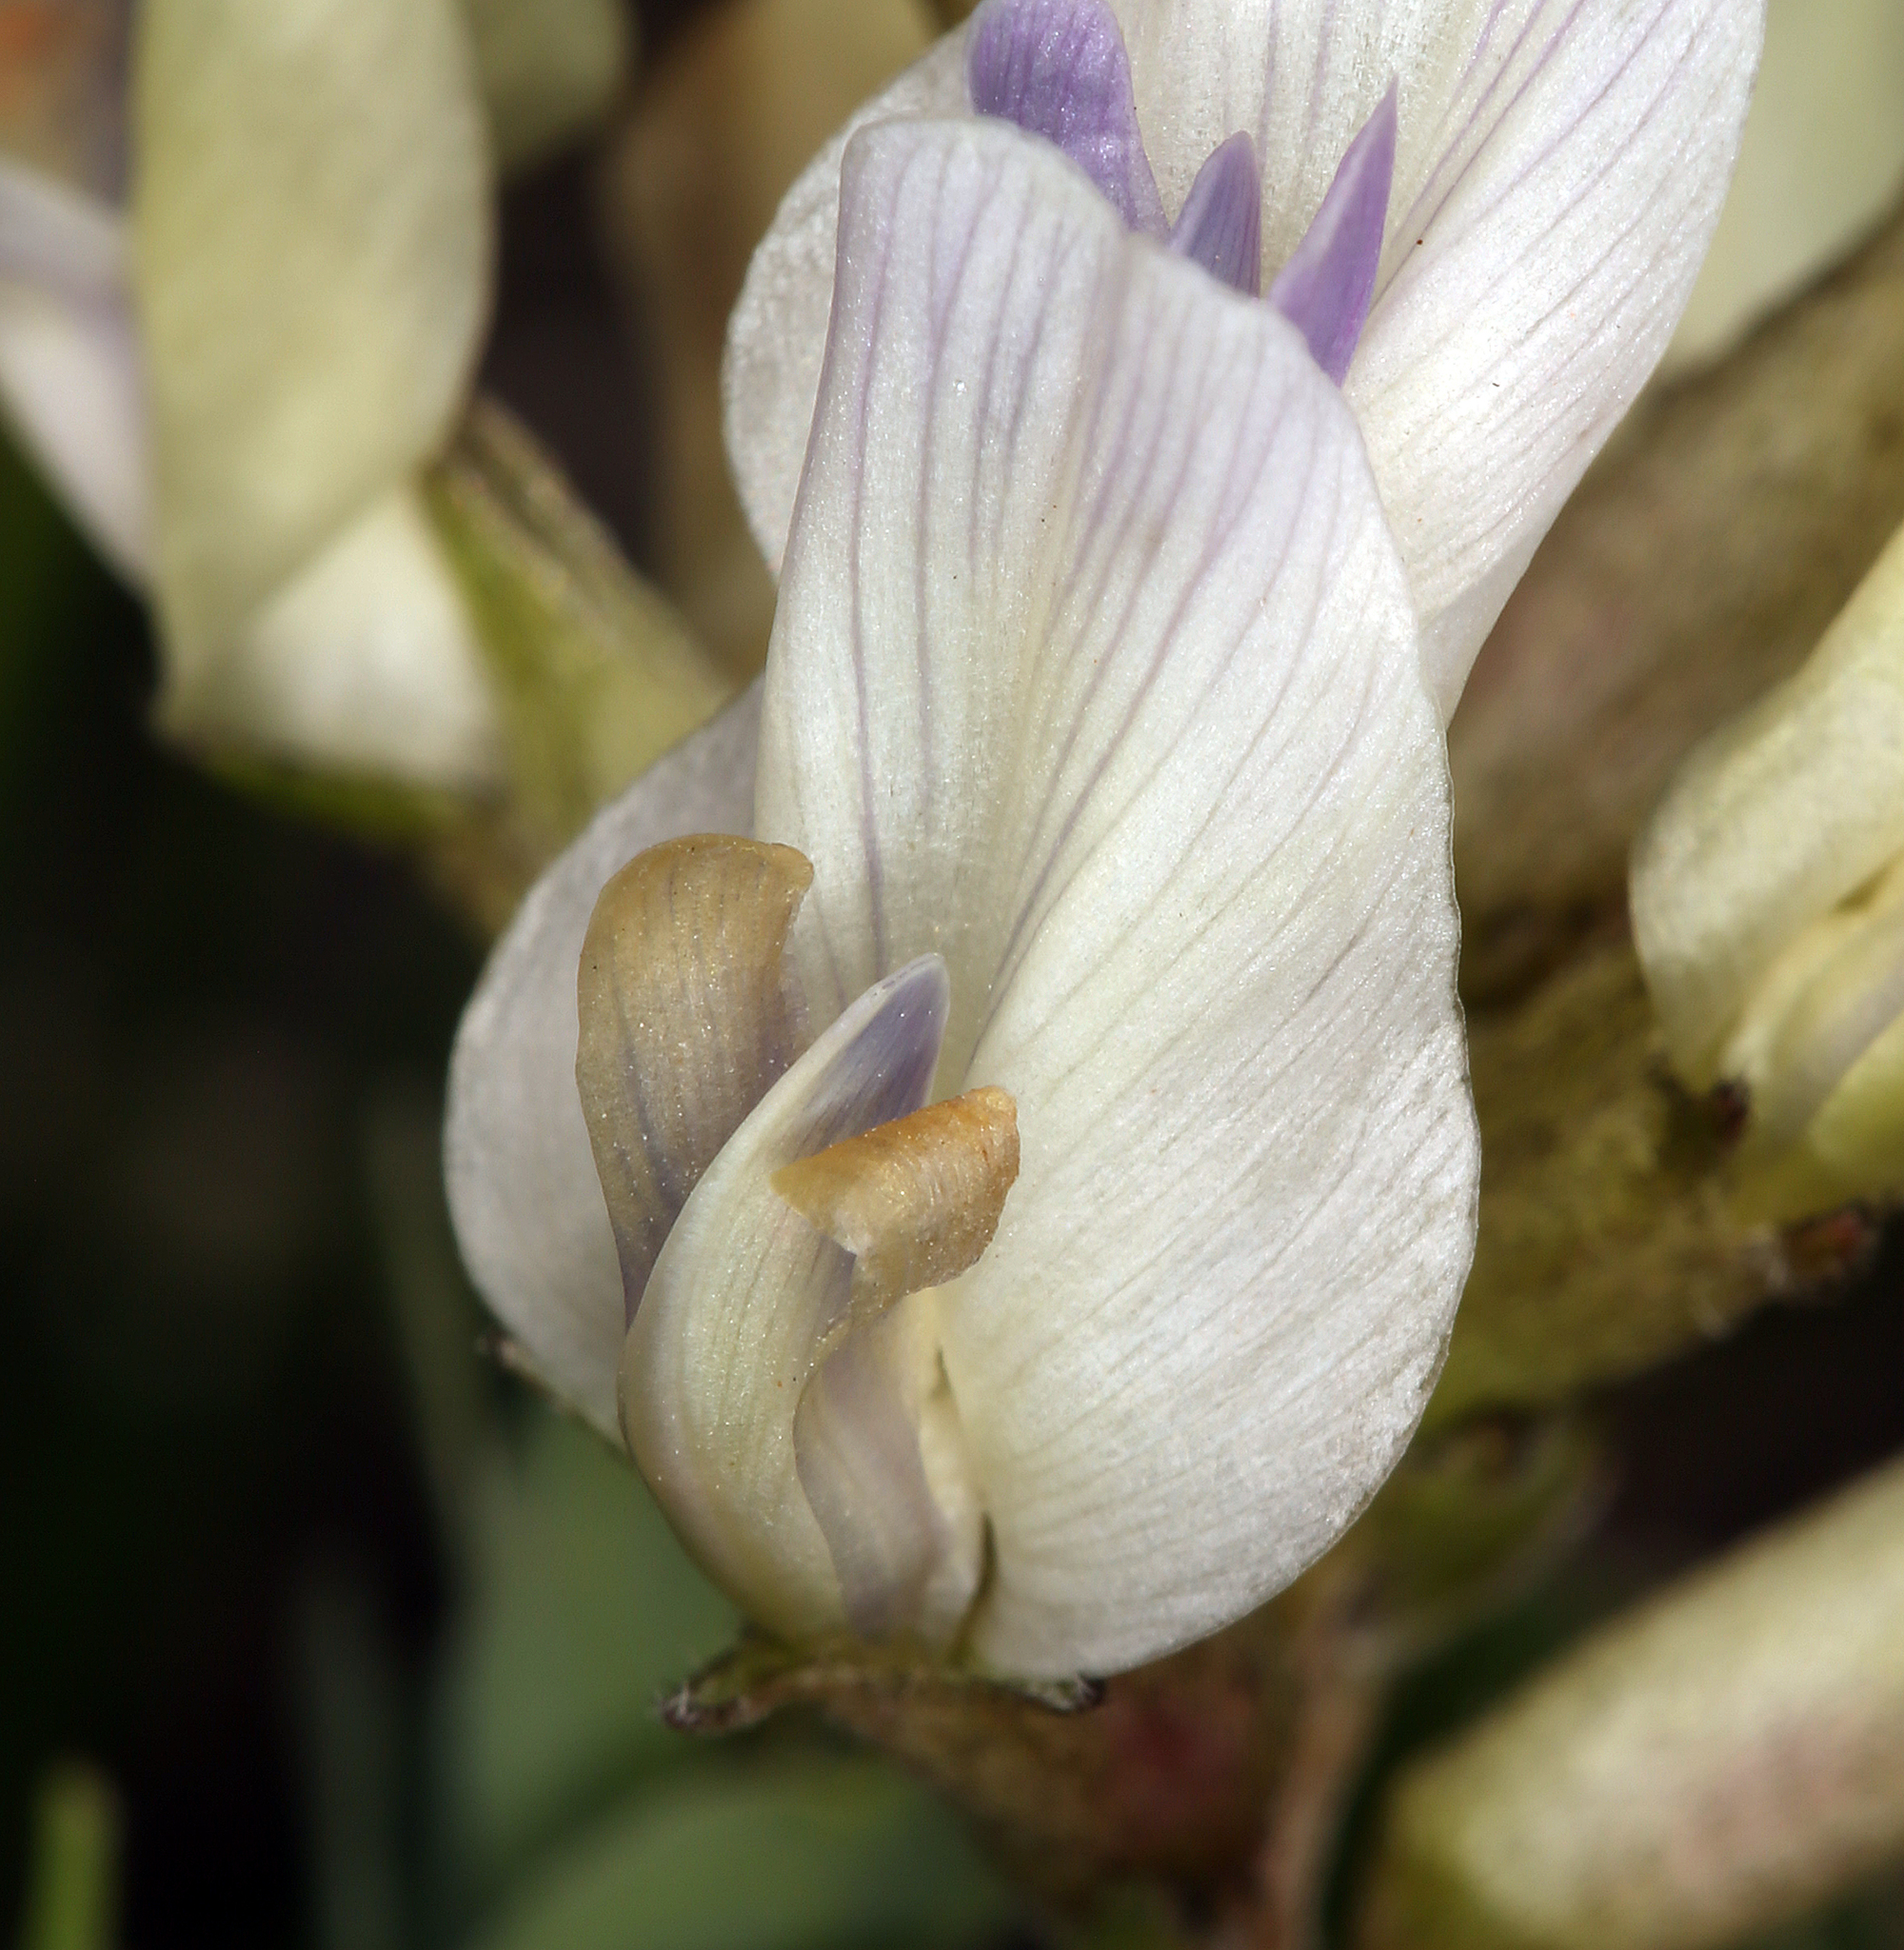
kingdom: Plantae
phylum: Tracheophyta
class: Magnoliopsida
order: Fabales
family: Fabaceae
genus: Astragalus
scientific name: Astragalus lentiginosus
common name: Freckled milkvetch
